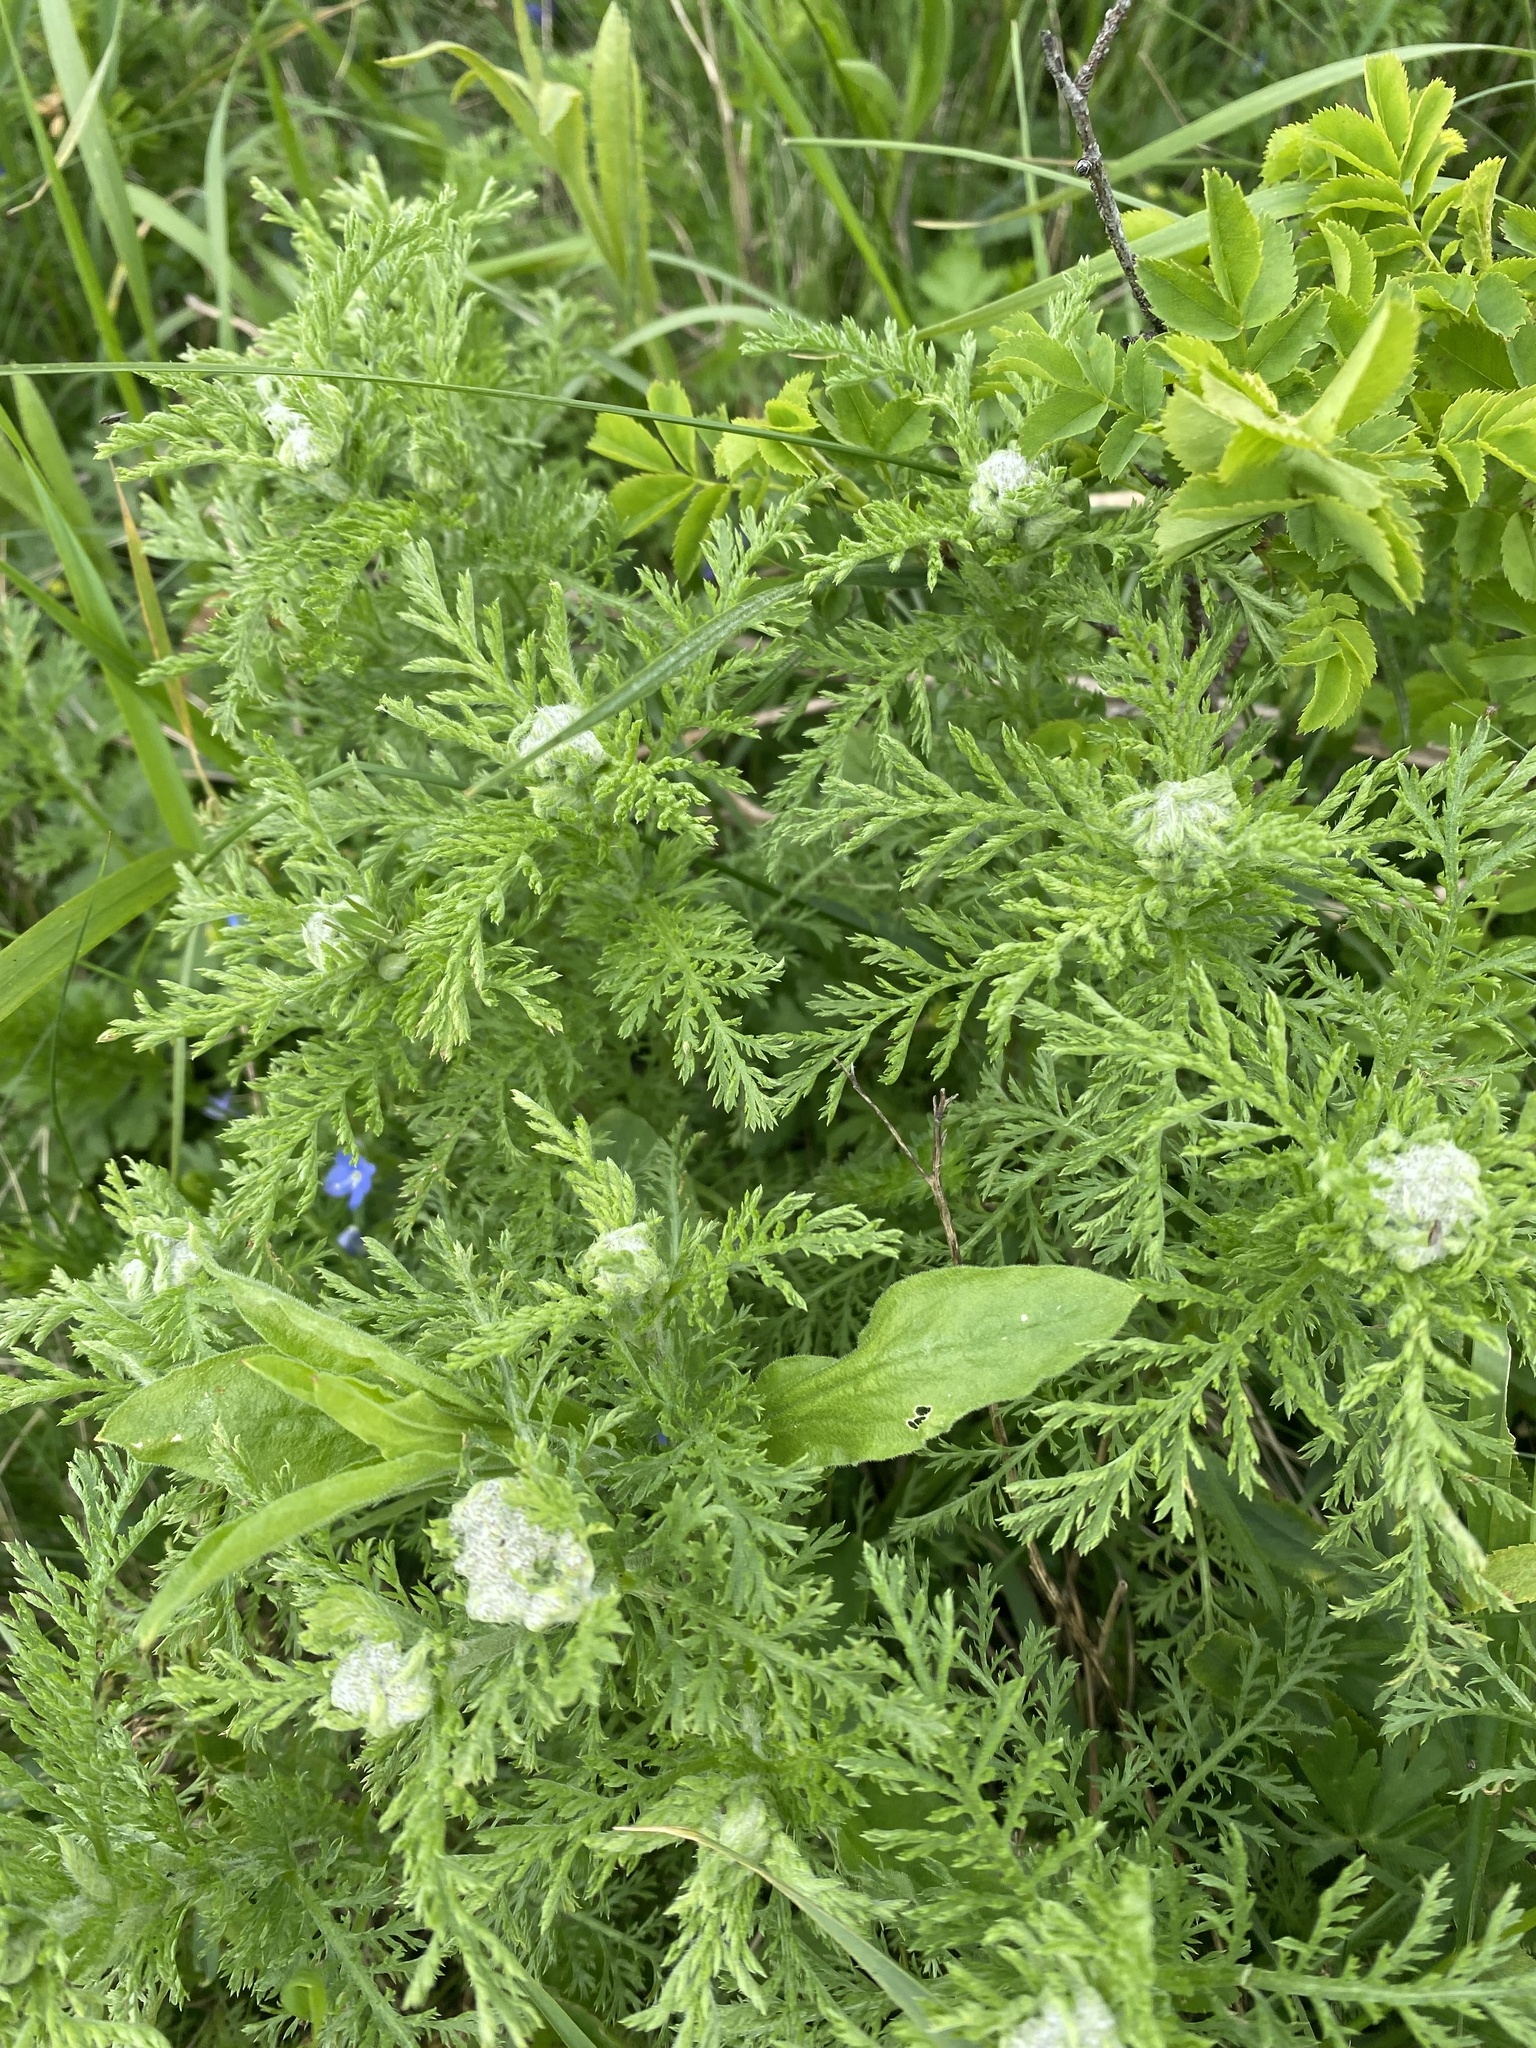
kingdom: Plantae
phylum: Tracheophyta
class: Magnoliopsida
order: Asterales
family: Asteraceae
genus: Achillea
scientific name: Achillea nobilis
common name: Noble yarrow
